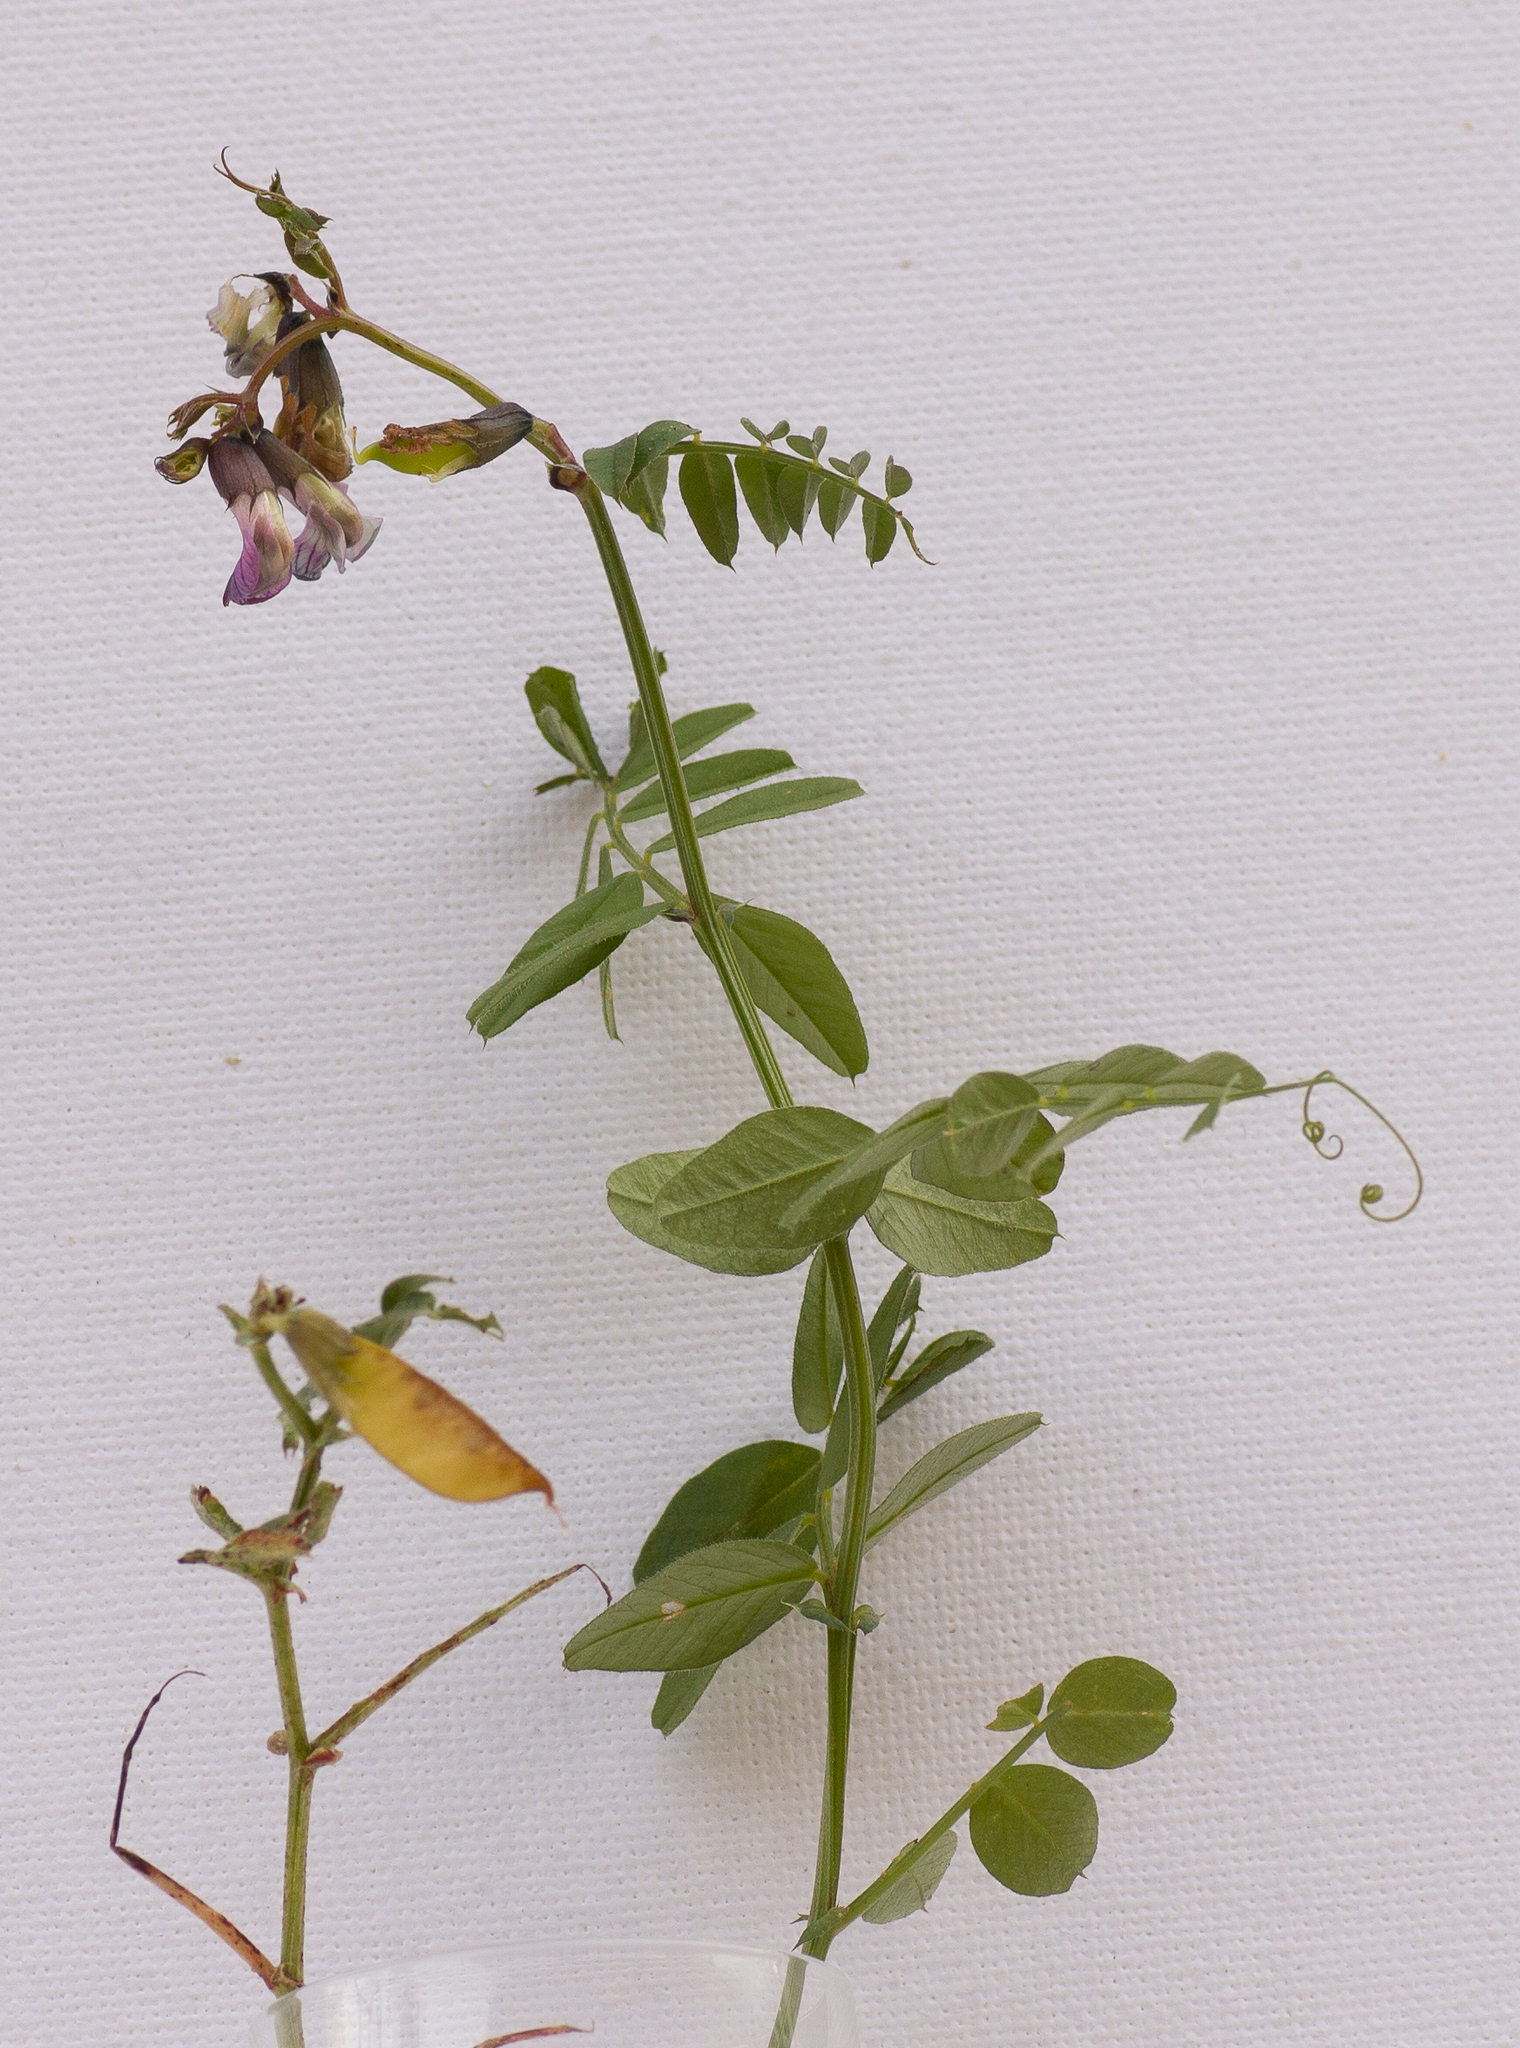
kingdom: Plantae
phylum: Tracheophyta
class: Magnoliopsida
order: Fabales
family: Fabaceae
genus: Vicia
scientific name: Vicia sepium
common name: Bush vetch
